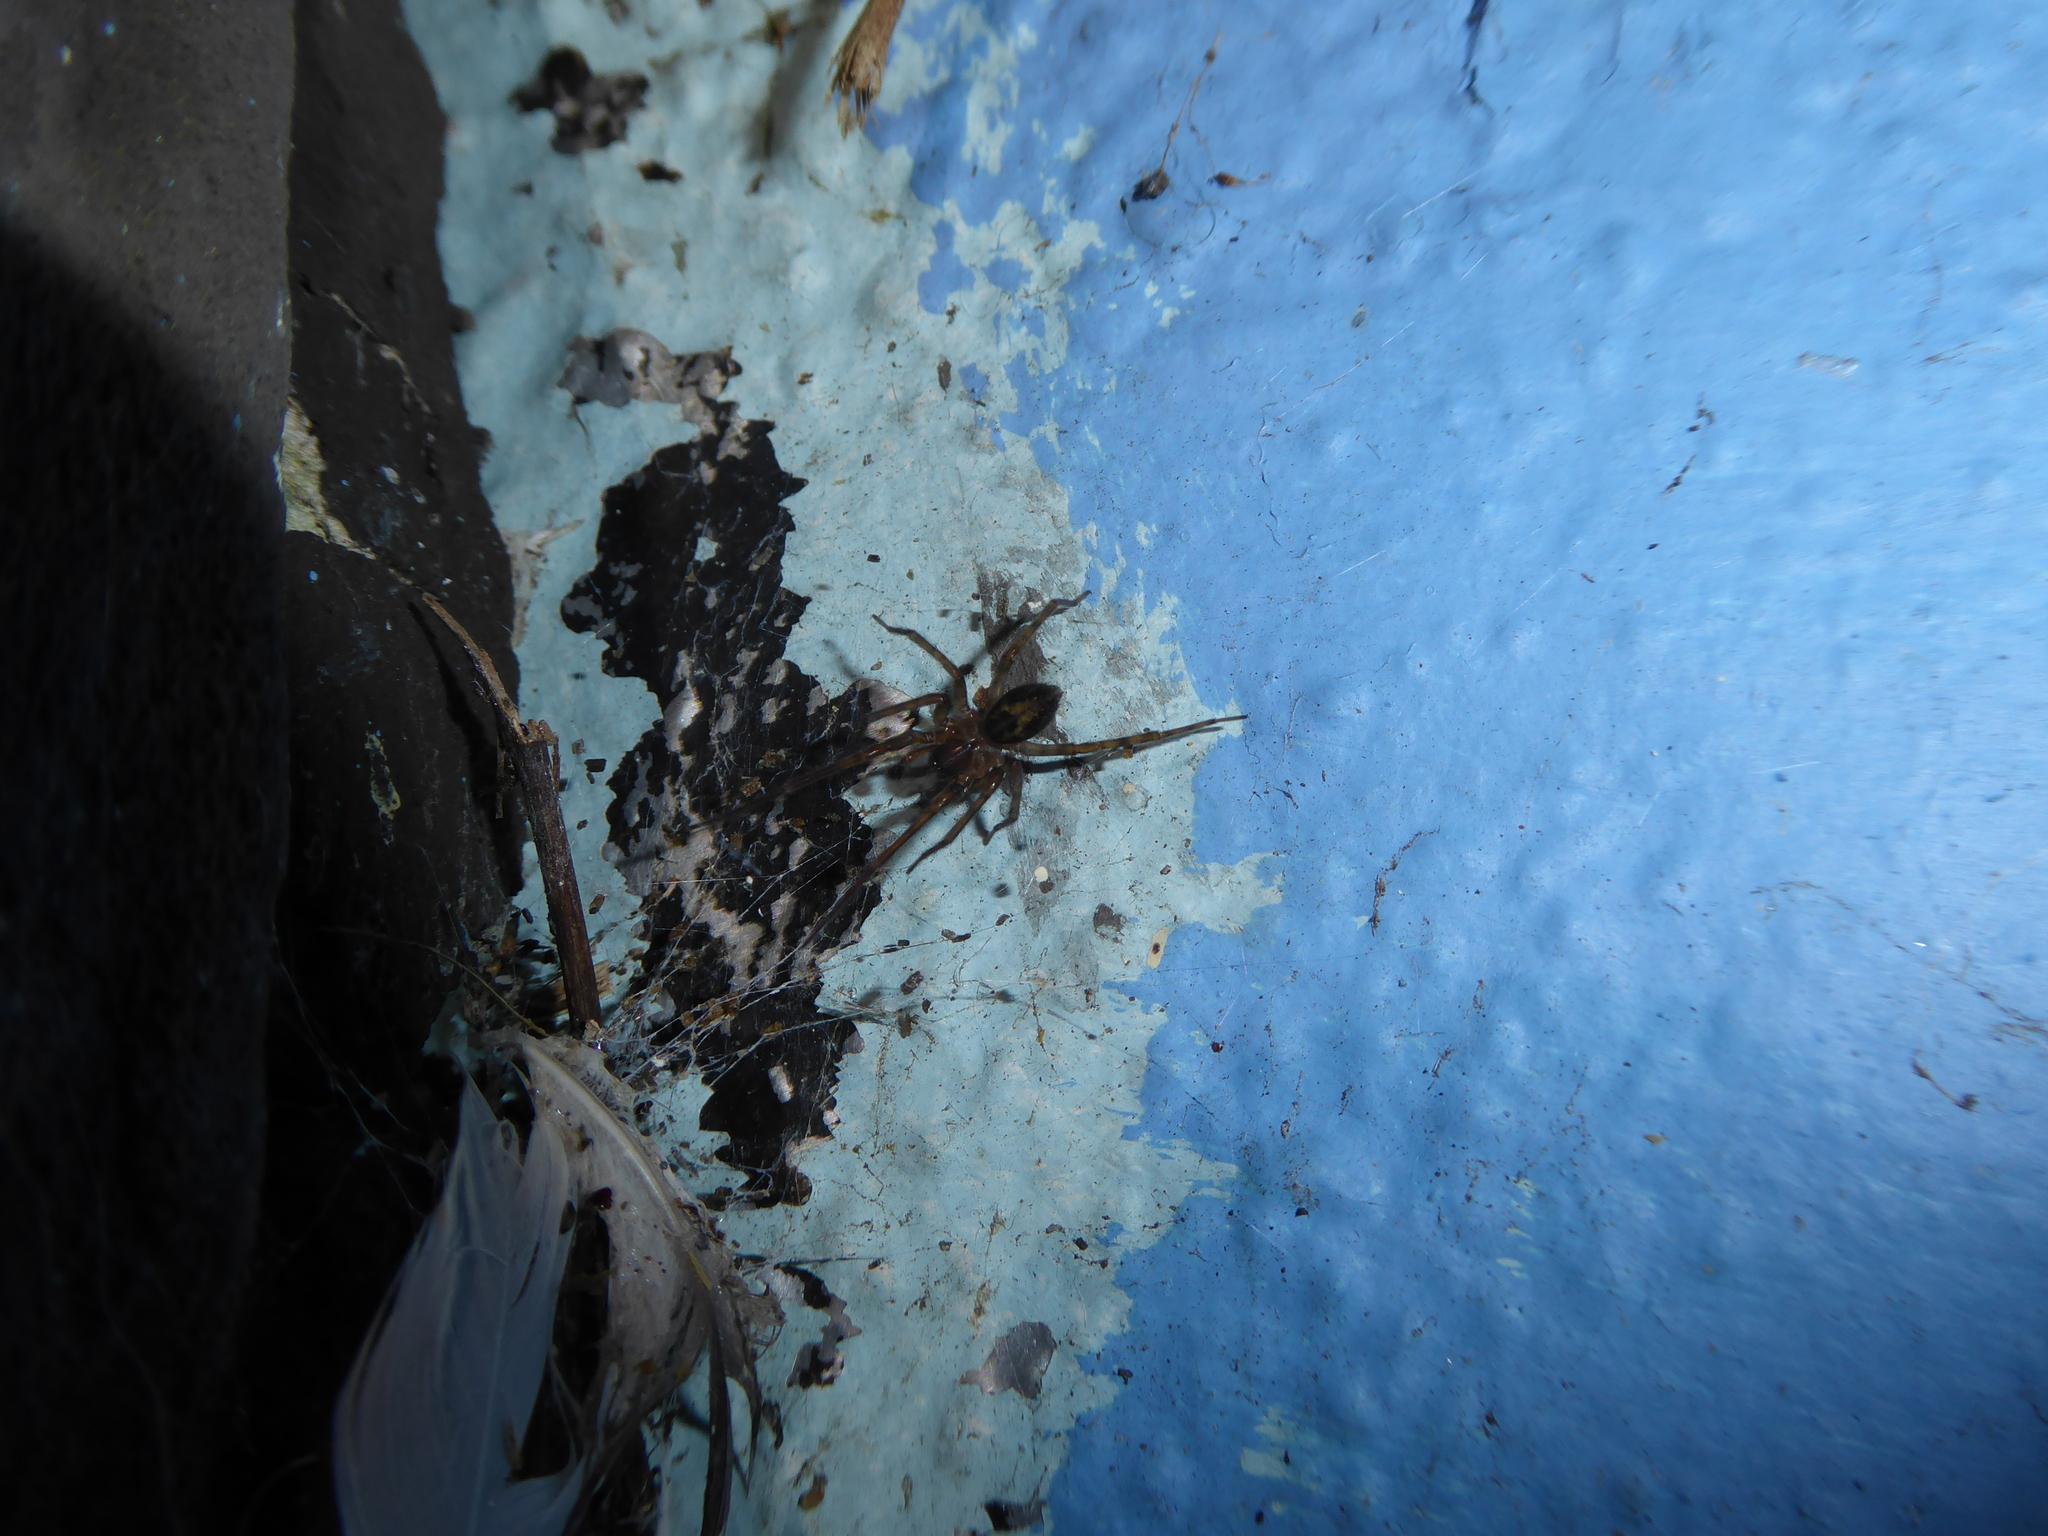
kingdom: Animalia
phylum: Arthropoda
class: Arachnida
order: Araneae
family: Amaurobiidae
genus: Amaurobius
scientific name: Amaurobius
